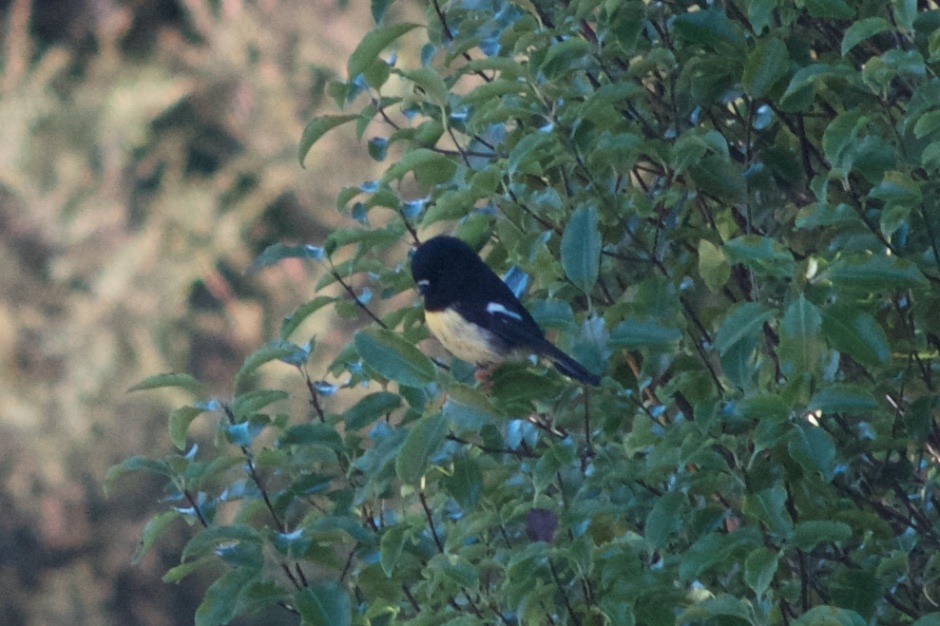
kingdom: Animalia
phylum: Chordata
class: Aves
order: Passeriformes
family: Petroicidae
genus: Petroica
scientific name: Petroica macrocephala
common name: Tomtit
